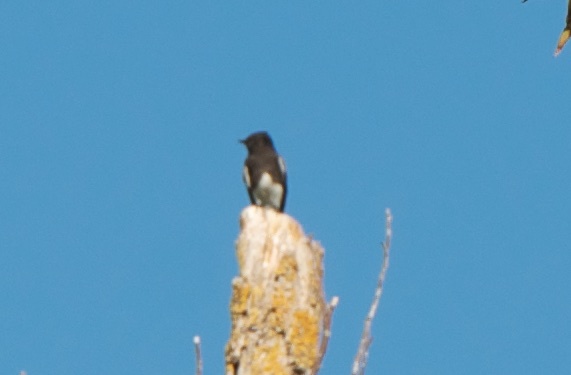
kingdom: Animalia
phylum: Chordata
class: Aves
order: Passeriformes
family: Tyrannidae
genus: Sayornis
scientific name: Sayornis nigricans
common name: Black phoebe
